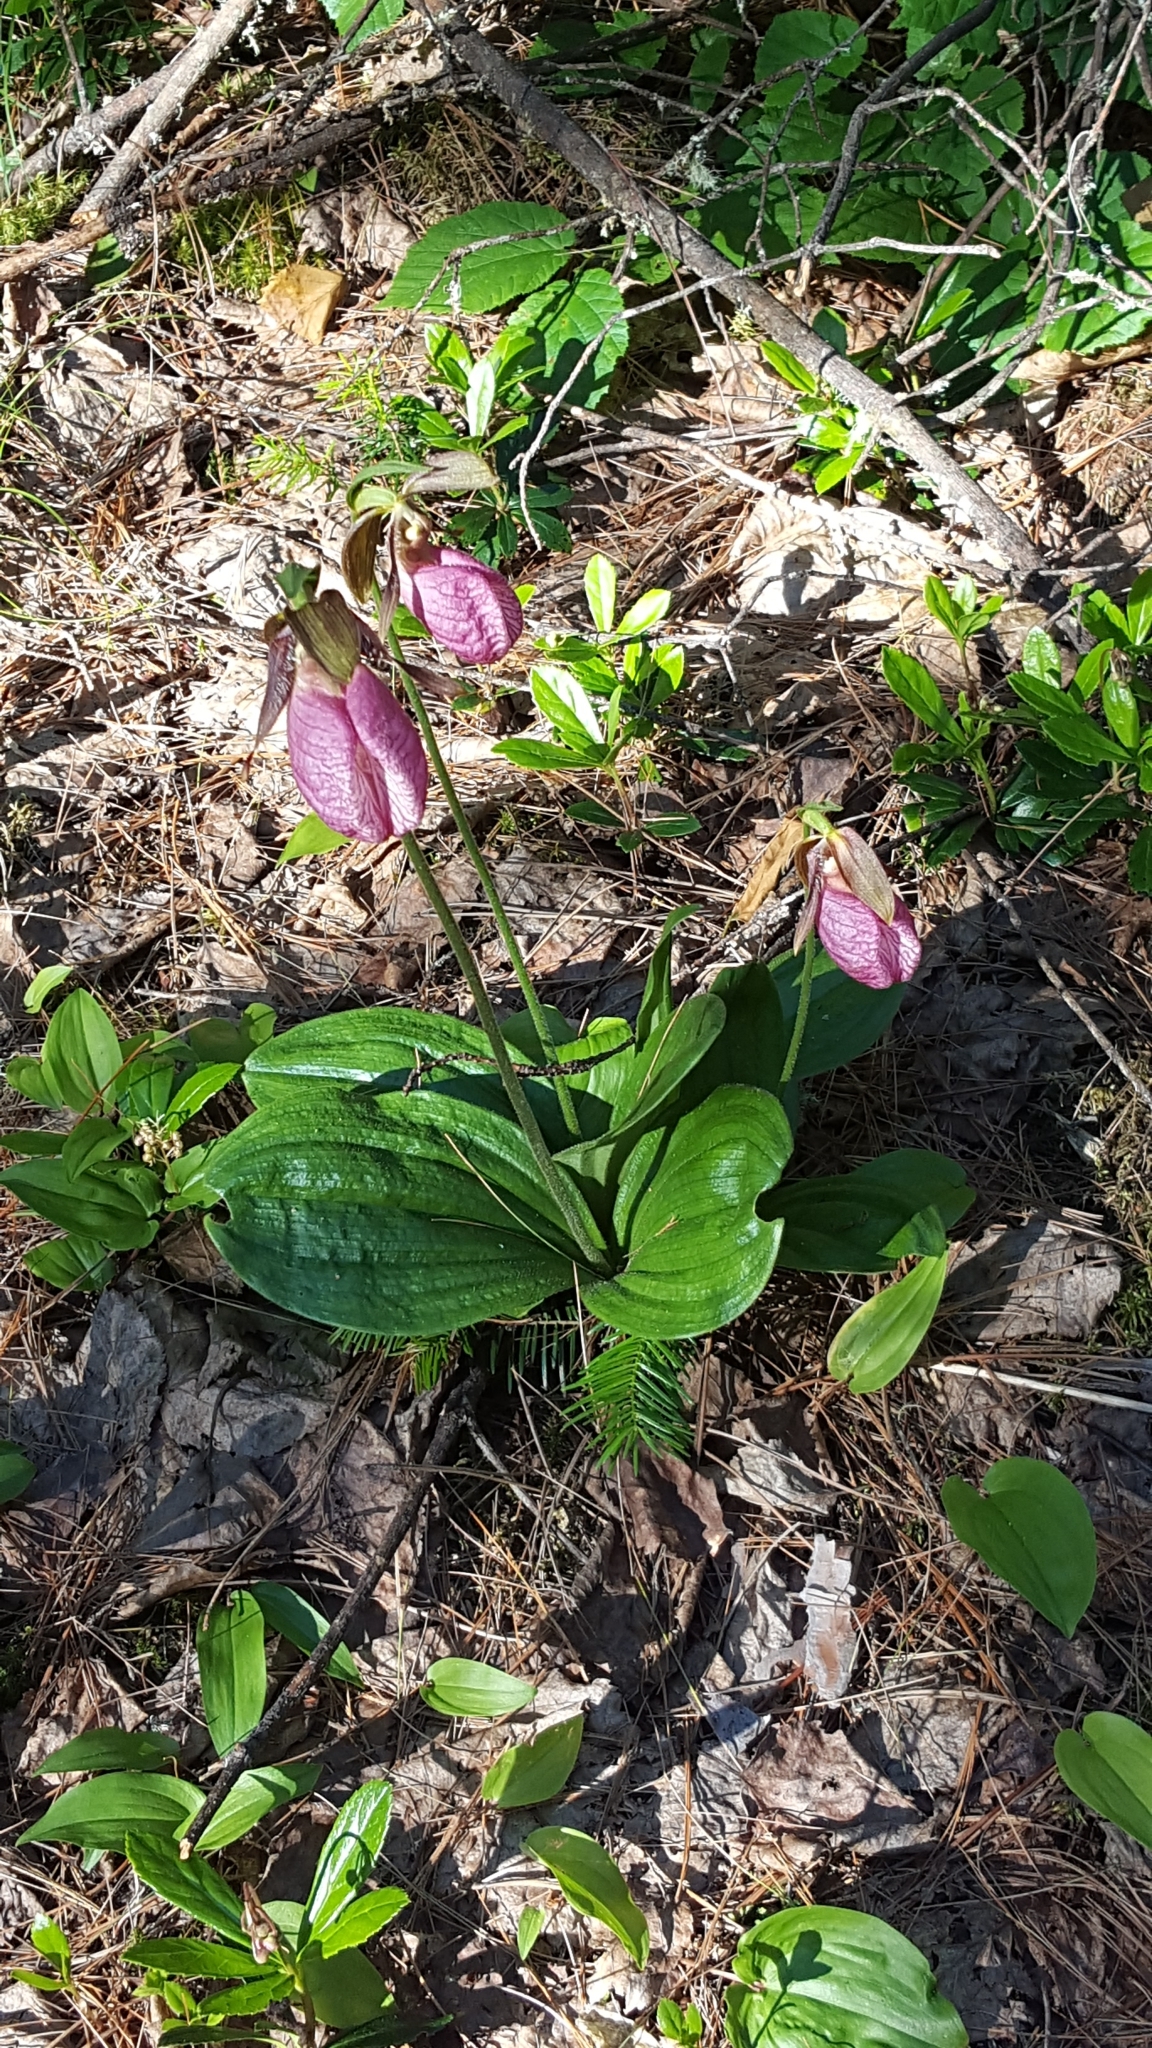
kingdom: Plantae
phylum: Tracheophyta
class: Liliopsida
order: Asparagales
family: Orchidaceae
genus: Cypripedium
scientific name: Cypripedium acaule
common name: Pink lady's-slipper
